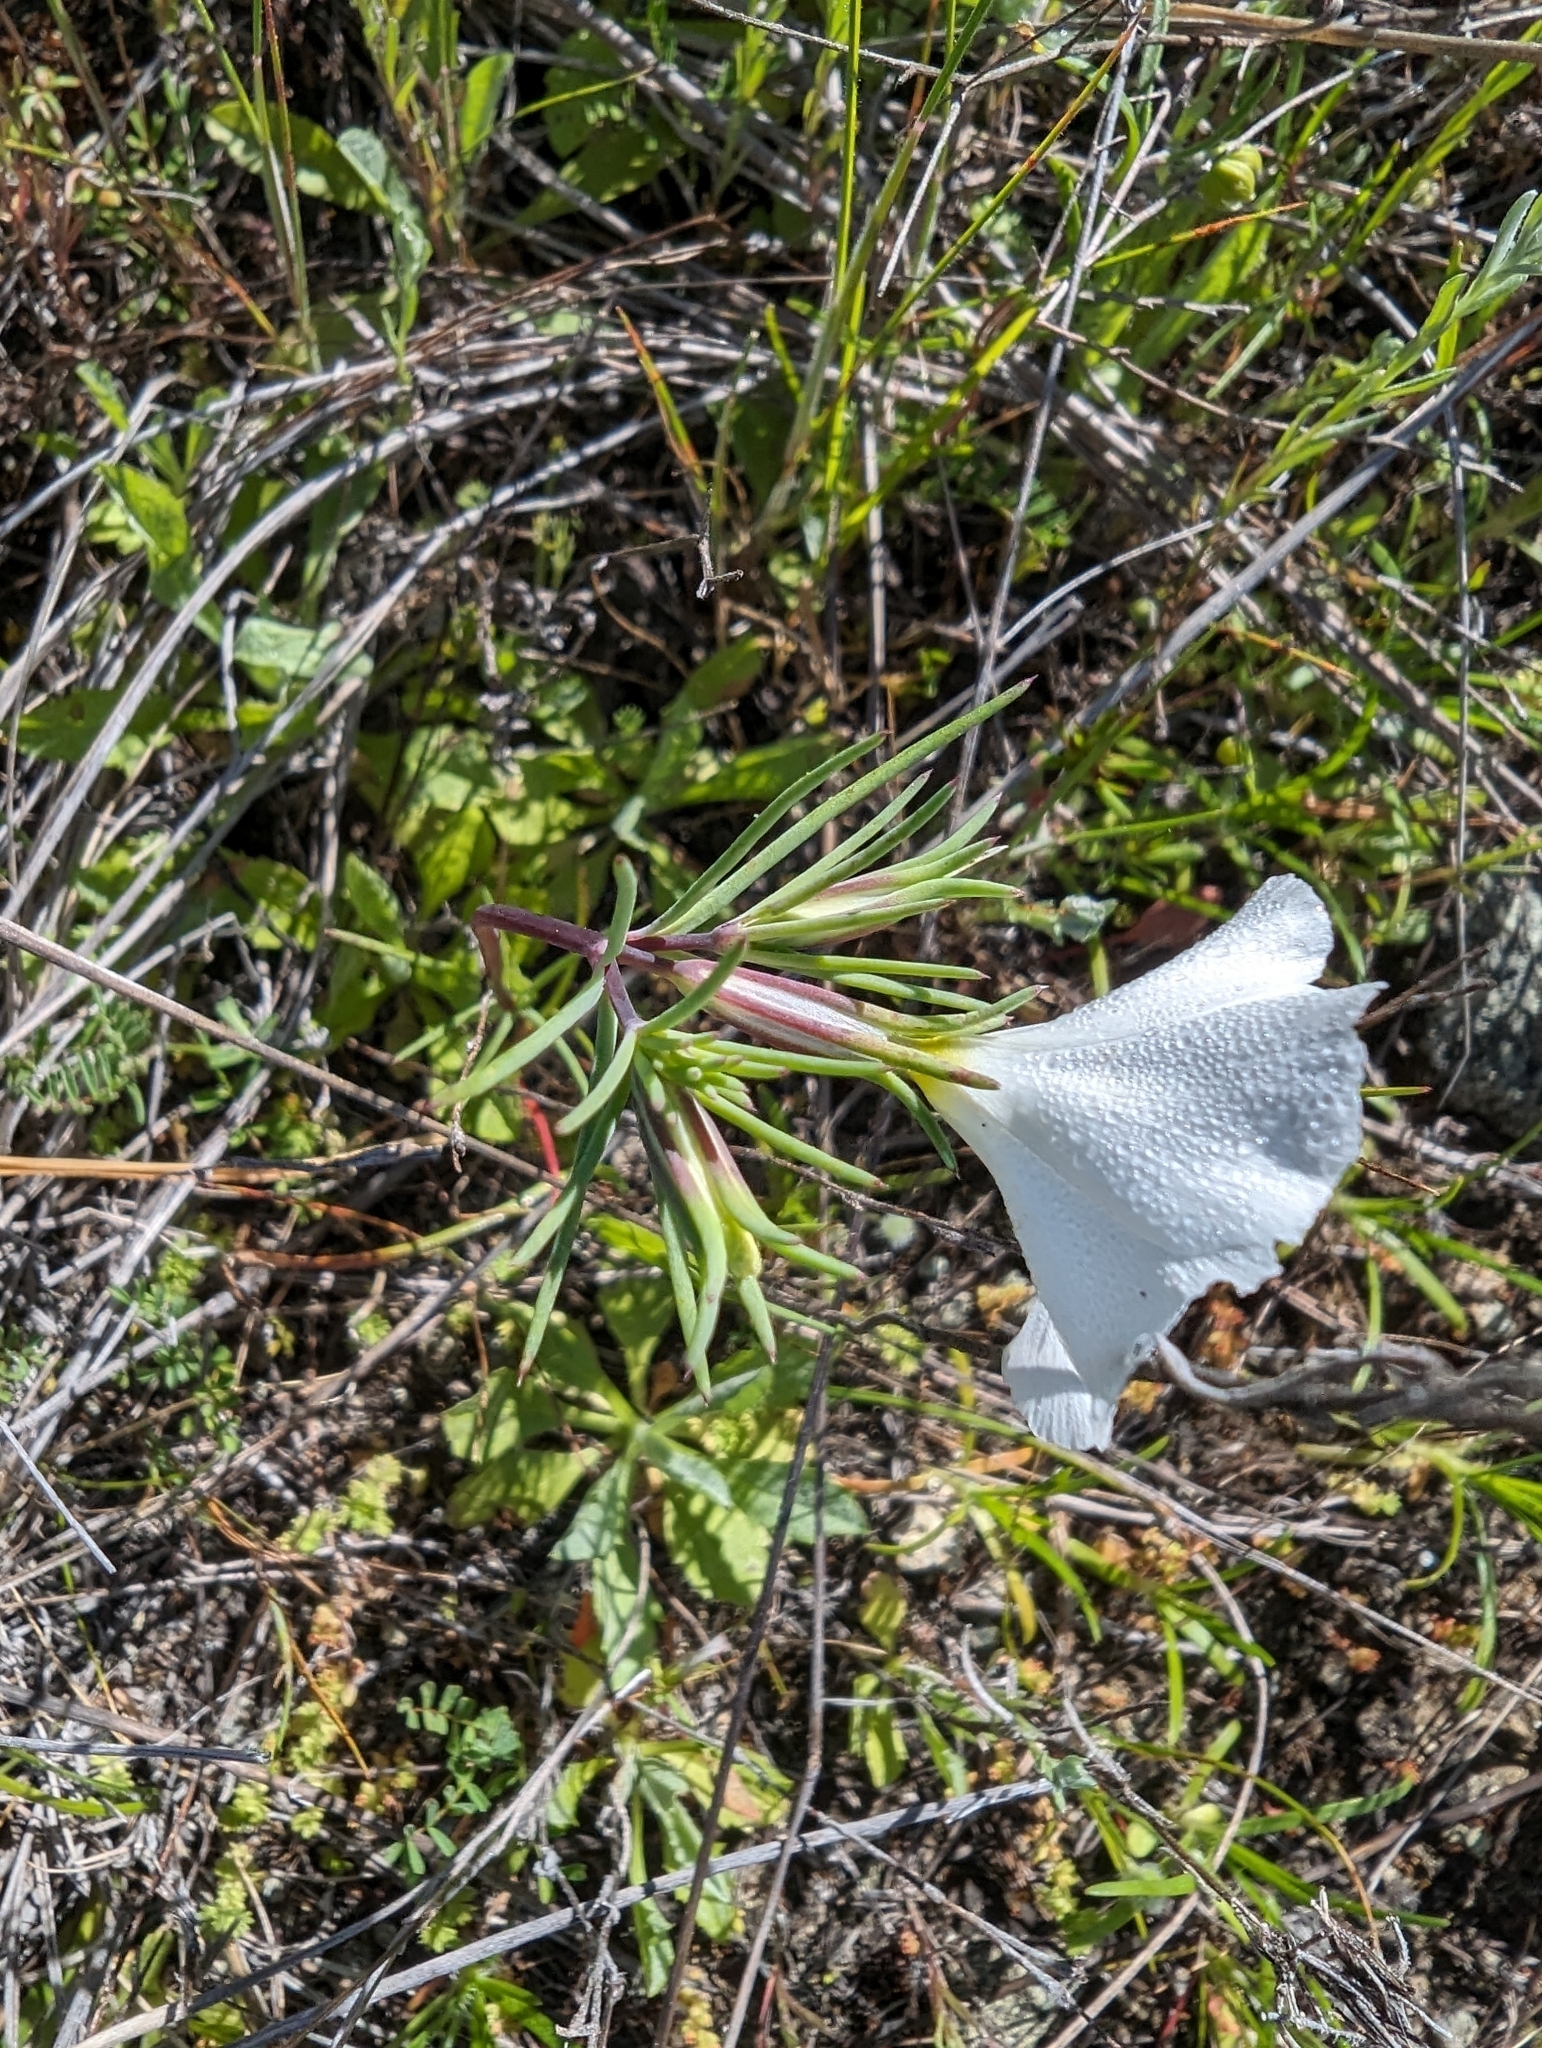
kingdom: Plantae
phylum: Tracheophyta
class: Magnoliopsida
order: Ericales
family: Polemoniaceae
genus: Linanthus
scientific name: Linanthus dichotomus
